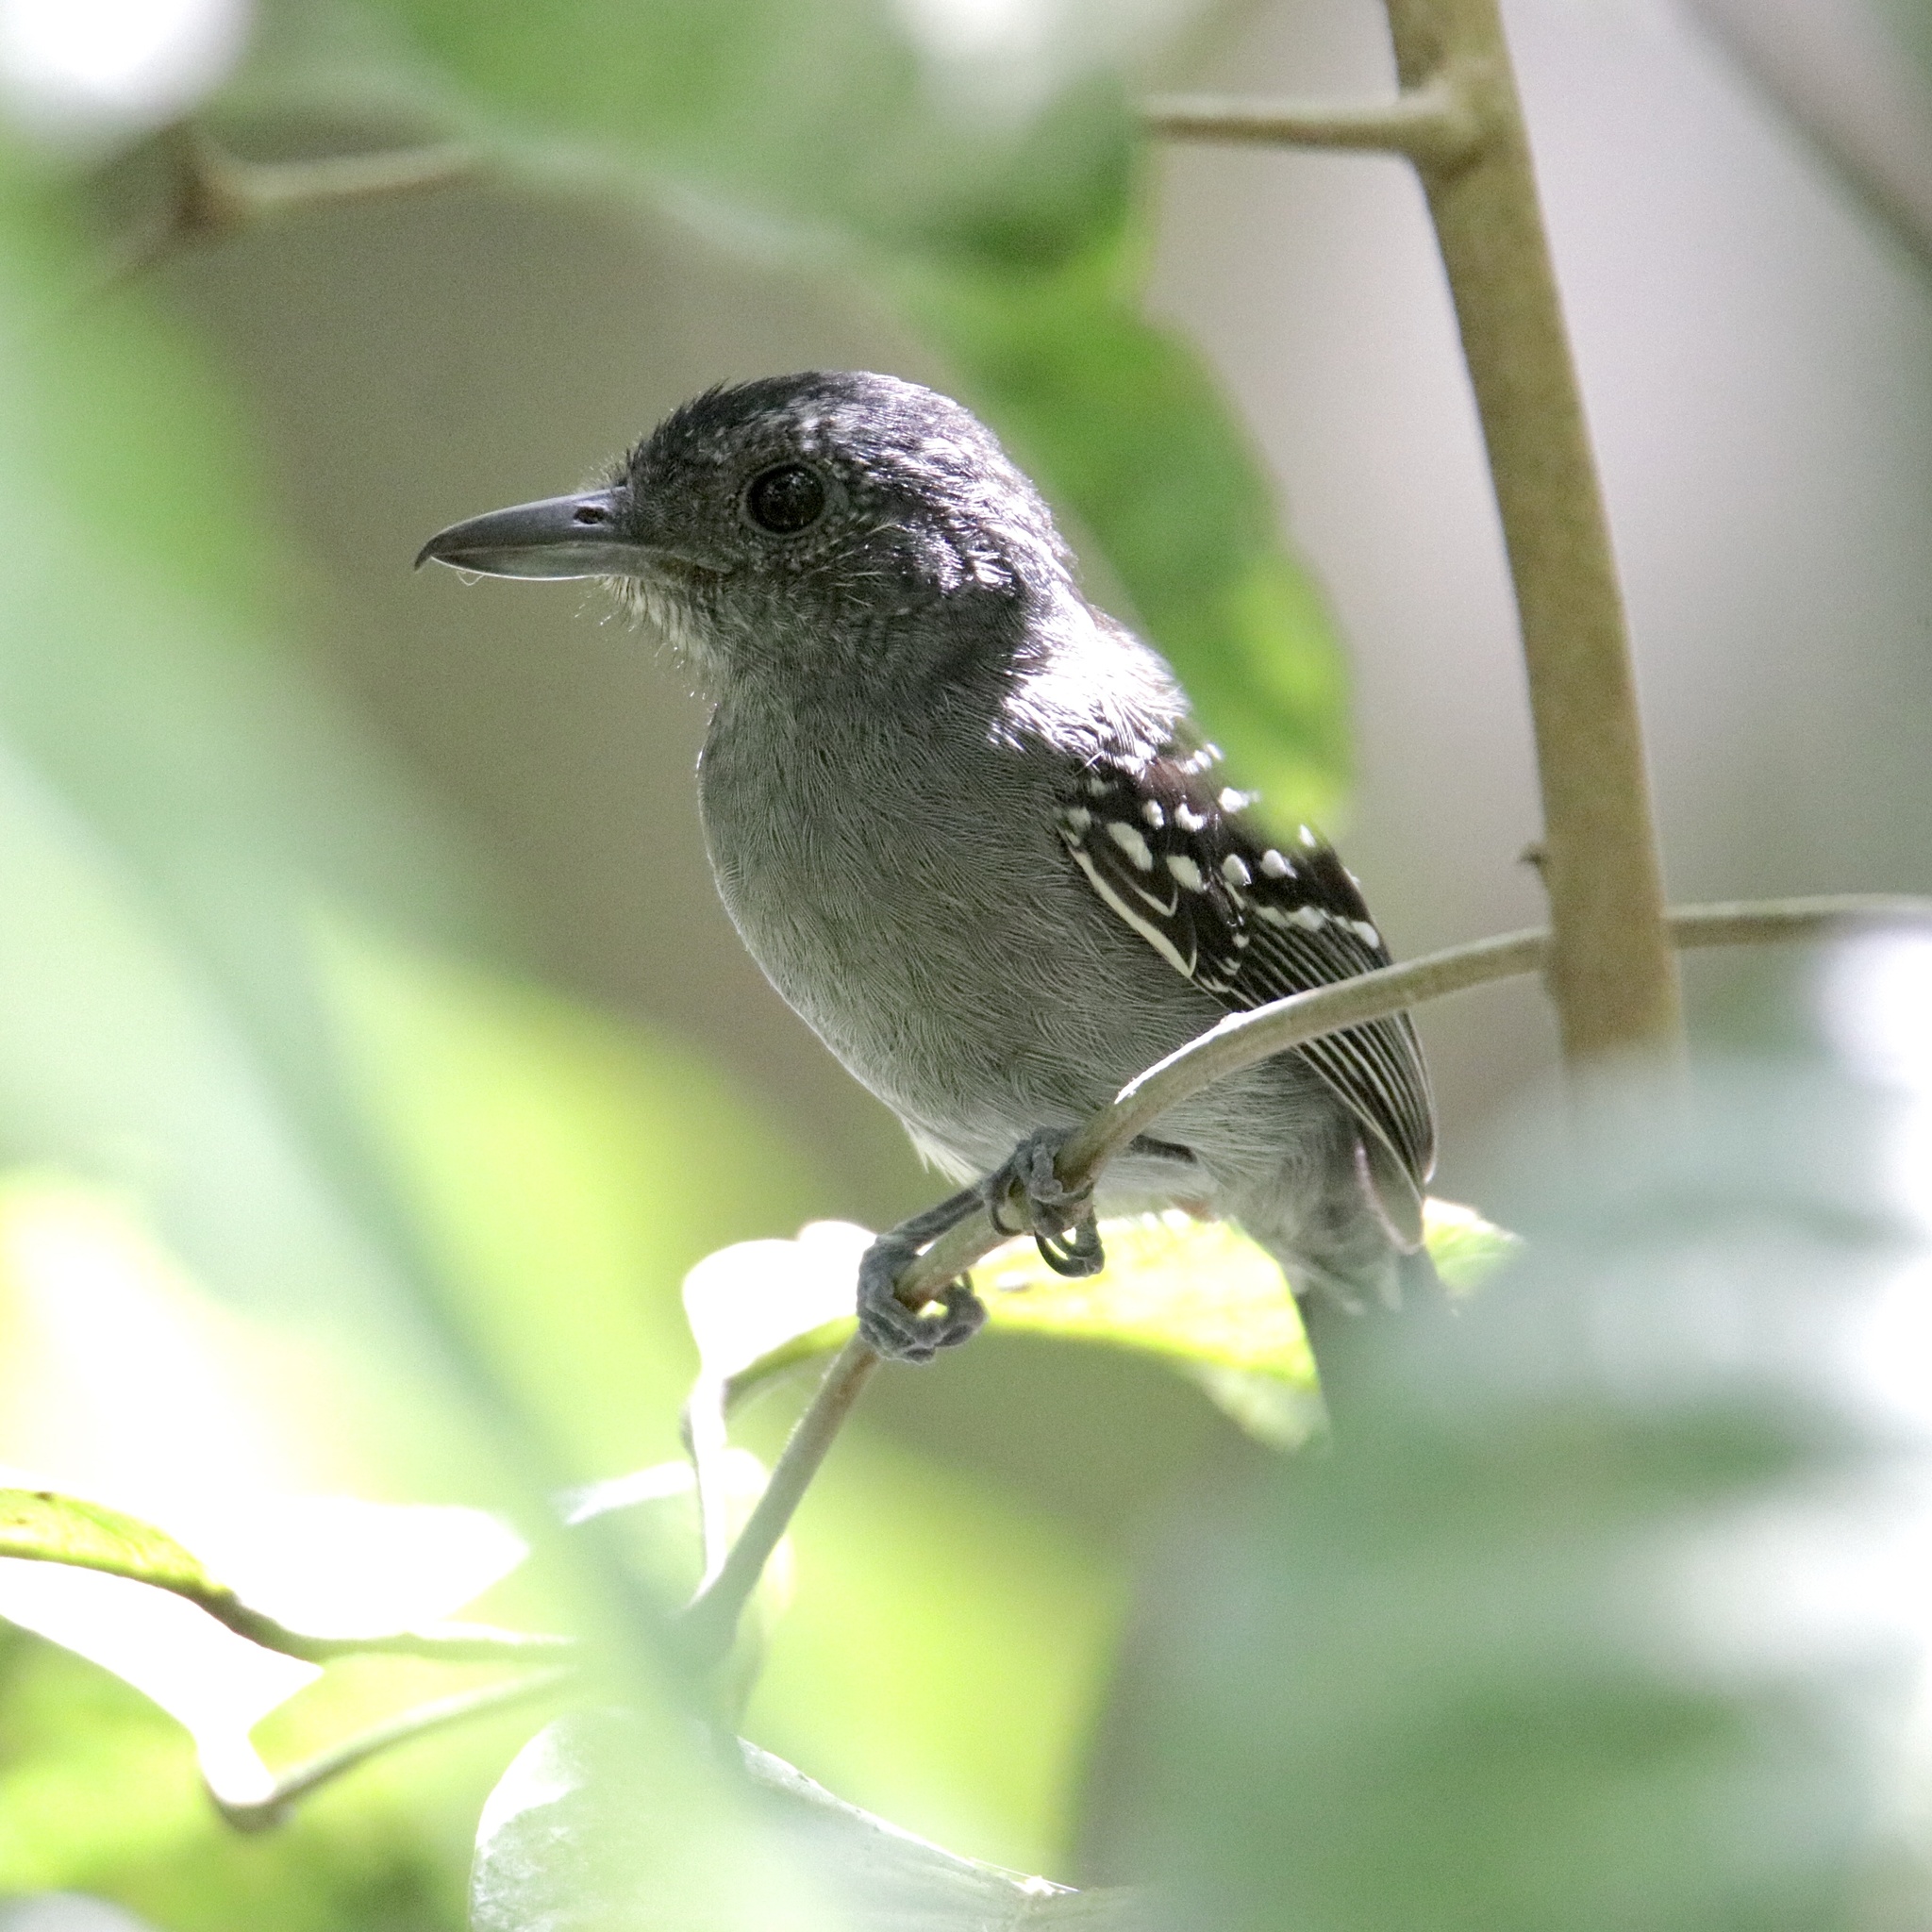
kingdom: Animalia
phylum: Chordata
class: Aves
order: Passeriformes
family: Thamnophilidae
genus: Thamnophilus
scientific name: Thamnophilus atrinucha
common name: Black-crowned antshrike
